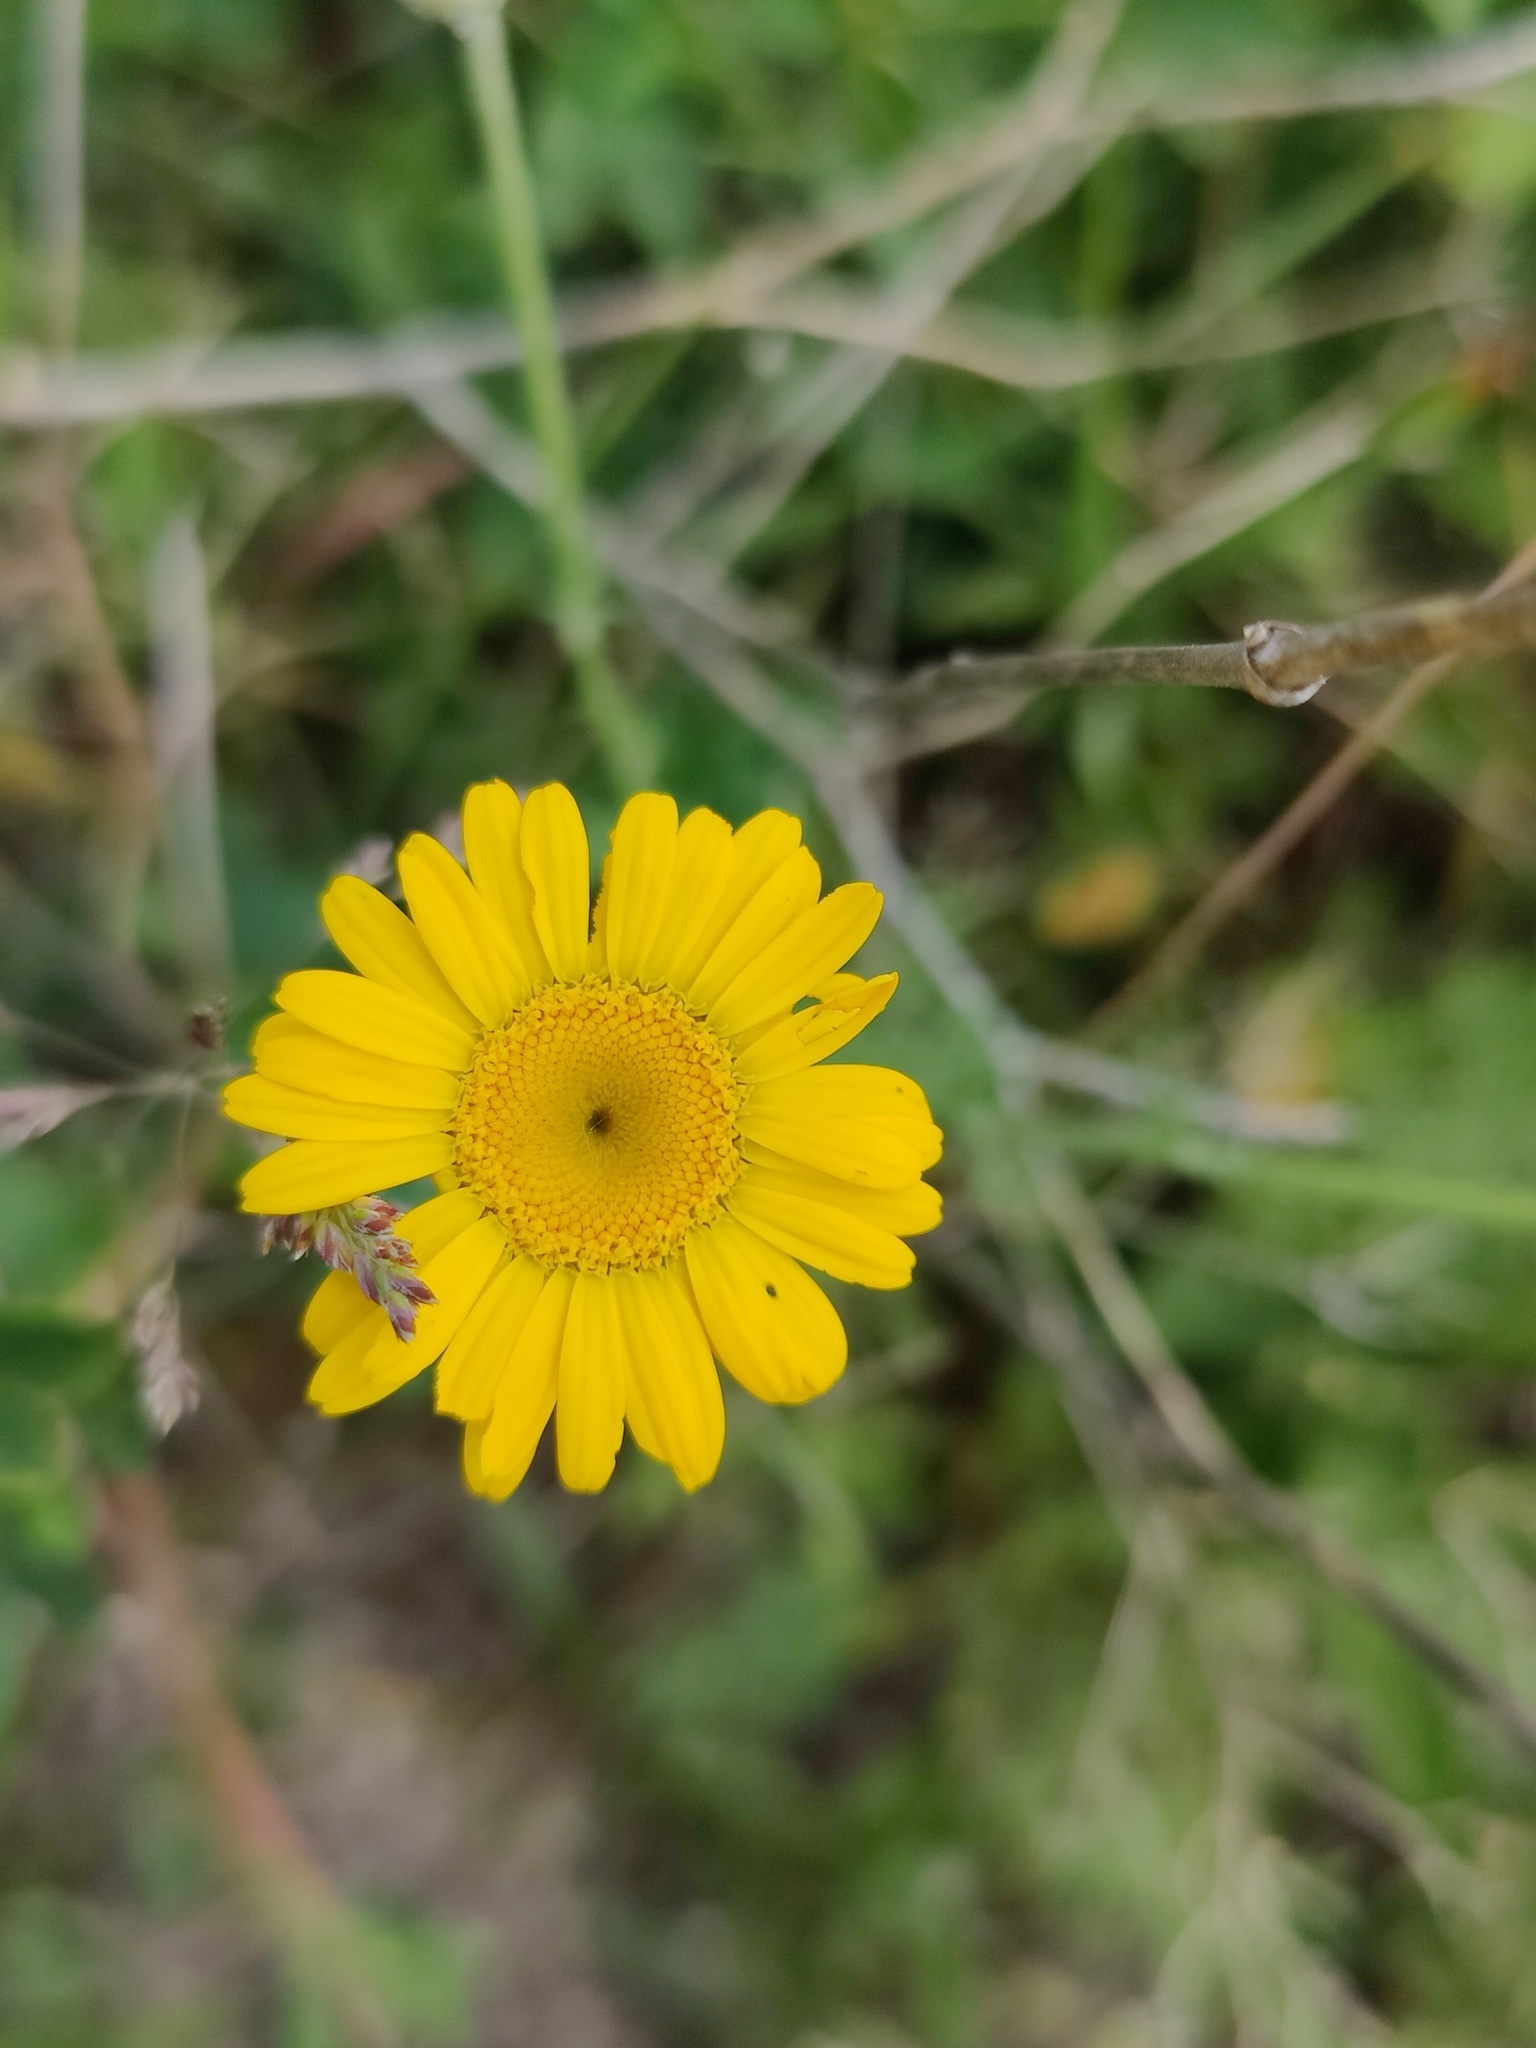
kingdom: Plantae
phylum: Tracheophyta
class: Magnoliopsida
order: Asterales
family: Asteraceae
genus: Cota
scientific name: Cota tinctoria
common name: Golden chamomile
